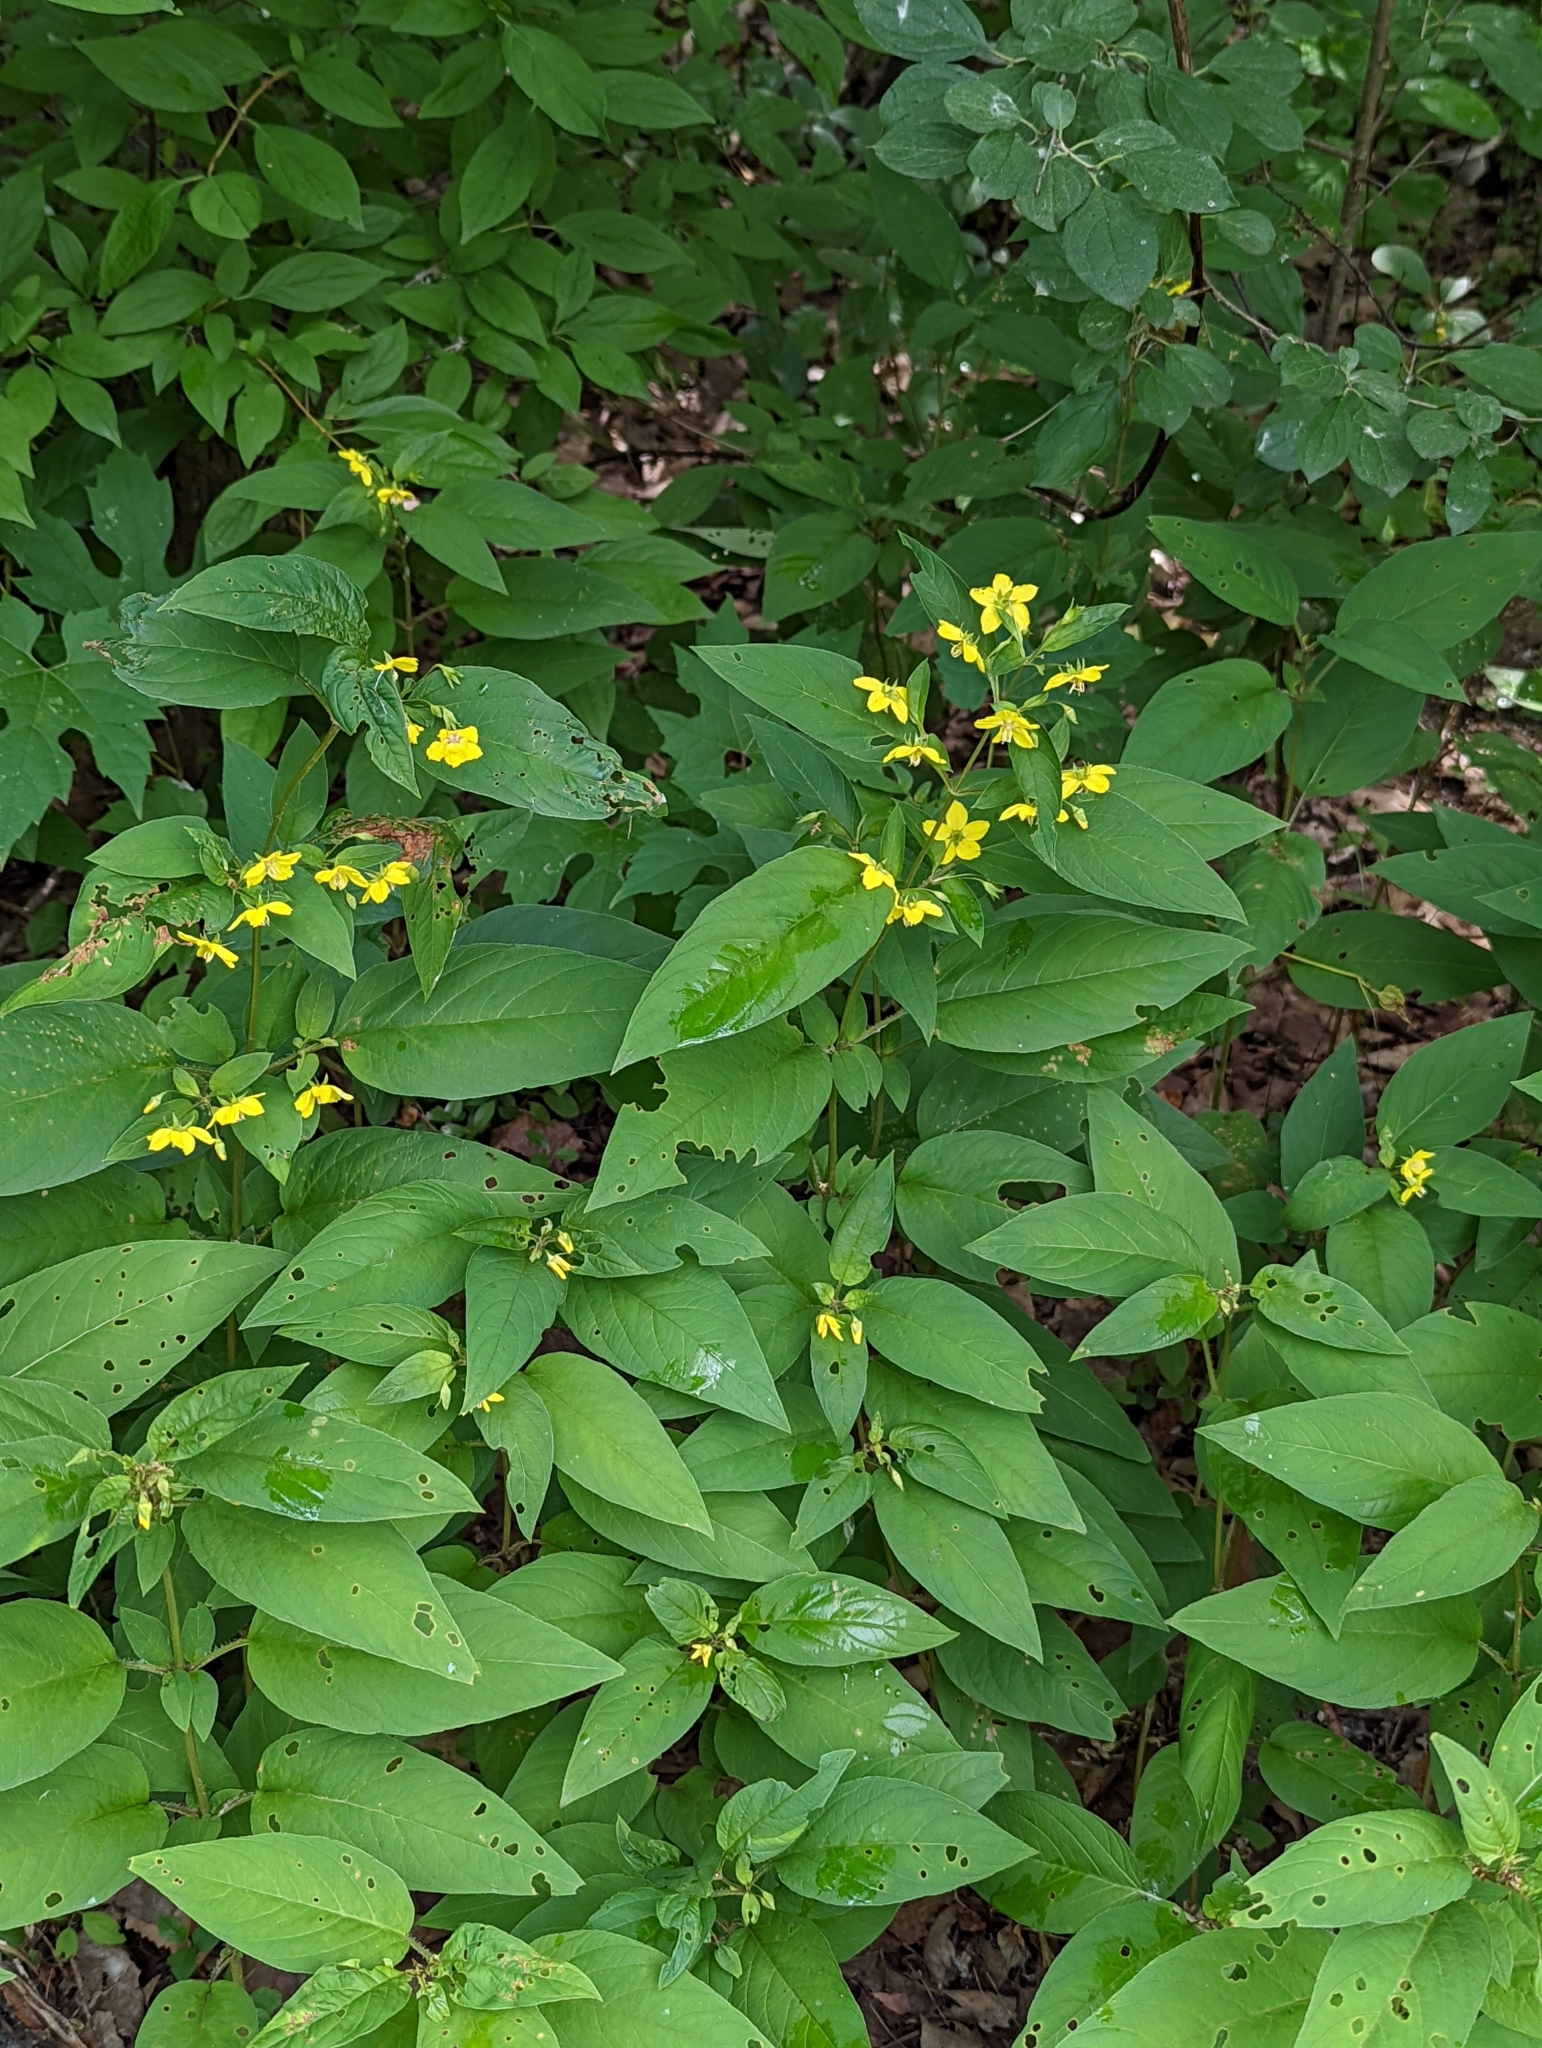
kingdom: Plantae
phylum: Tracheophyta
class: Magnoliopsida
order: Ericales
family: Primulaceae
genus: Lysimachia
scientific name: Lysimachia ciliata
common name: Fringed loosestrife
